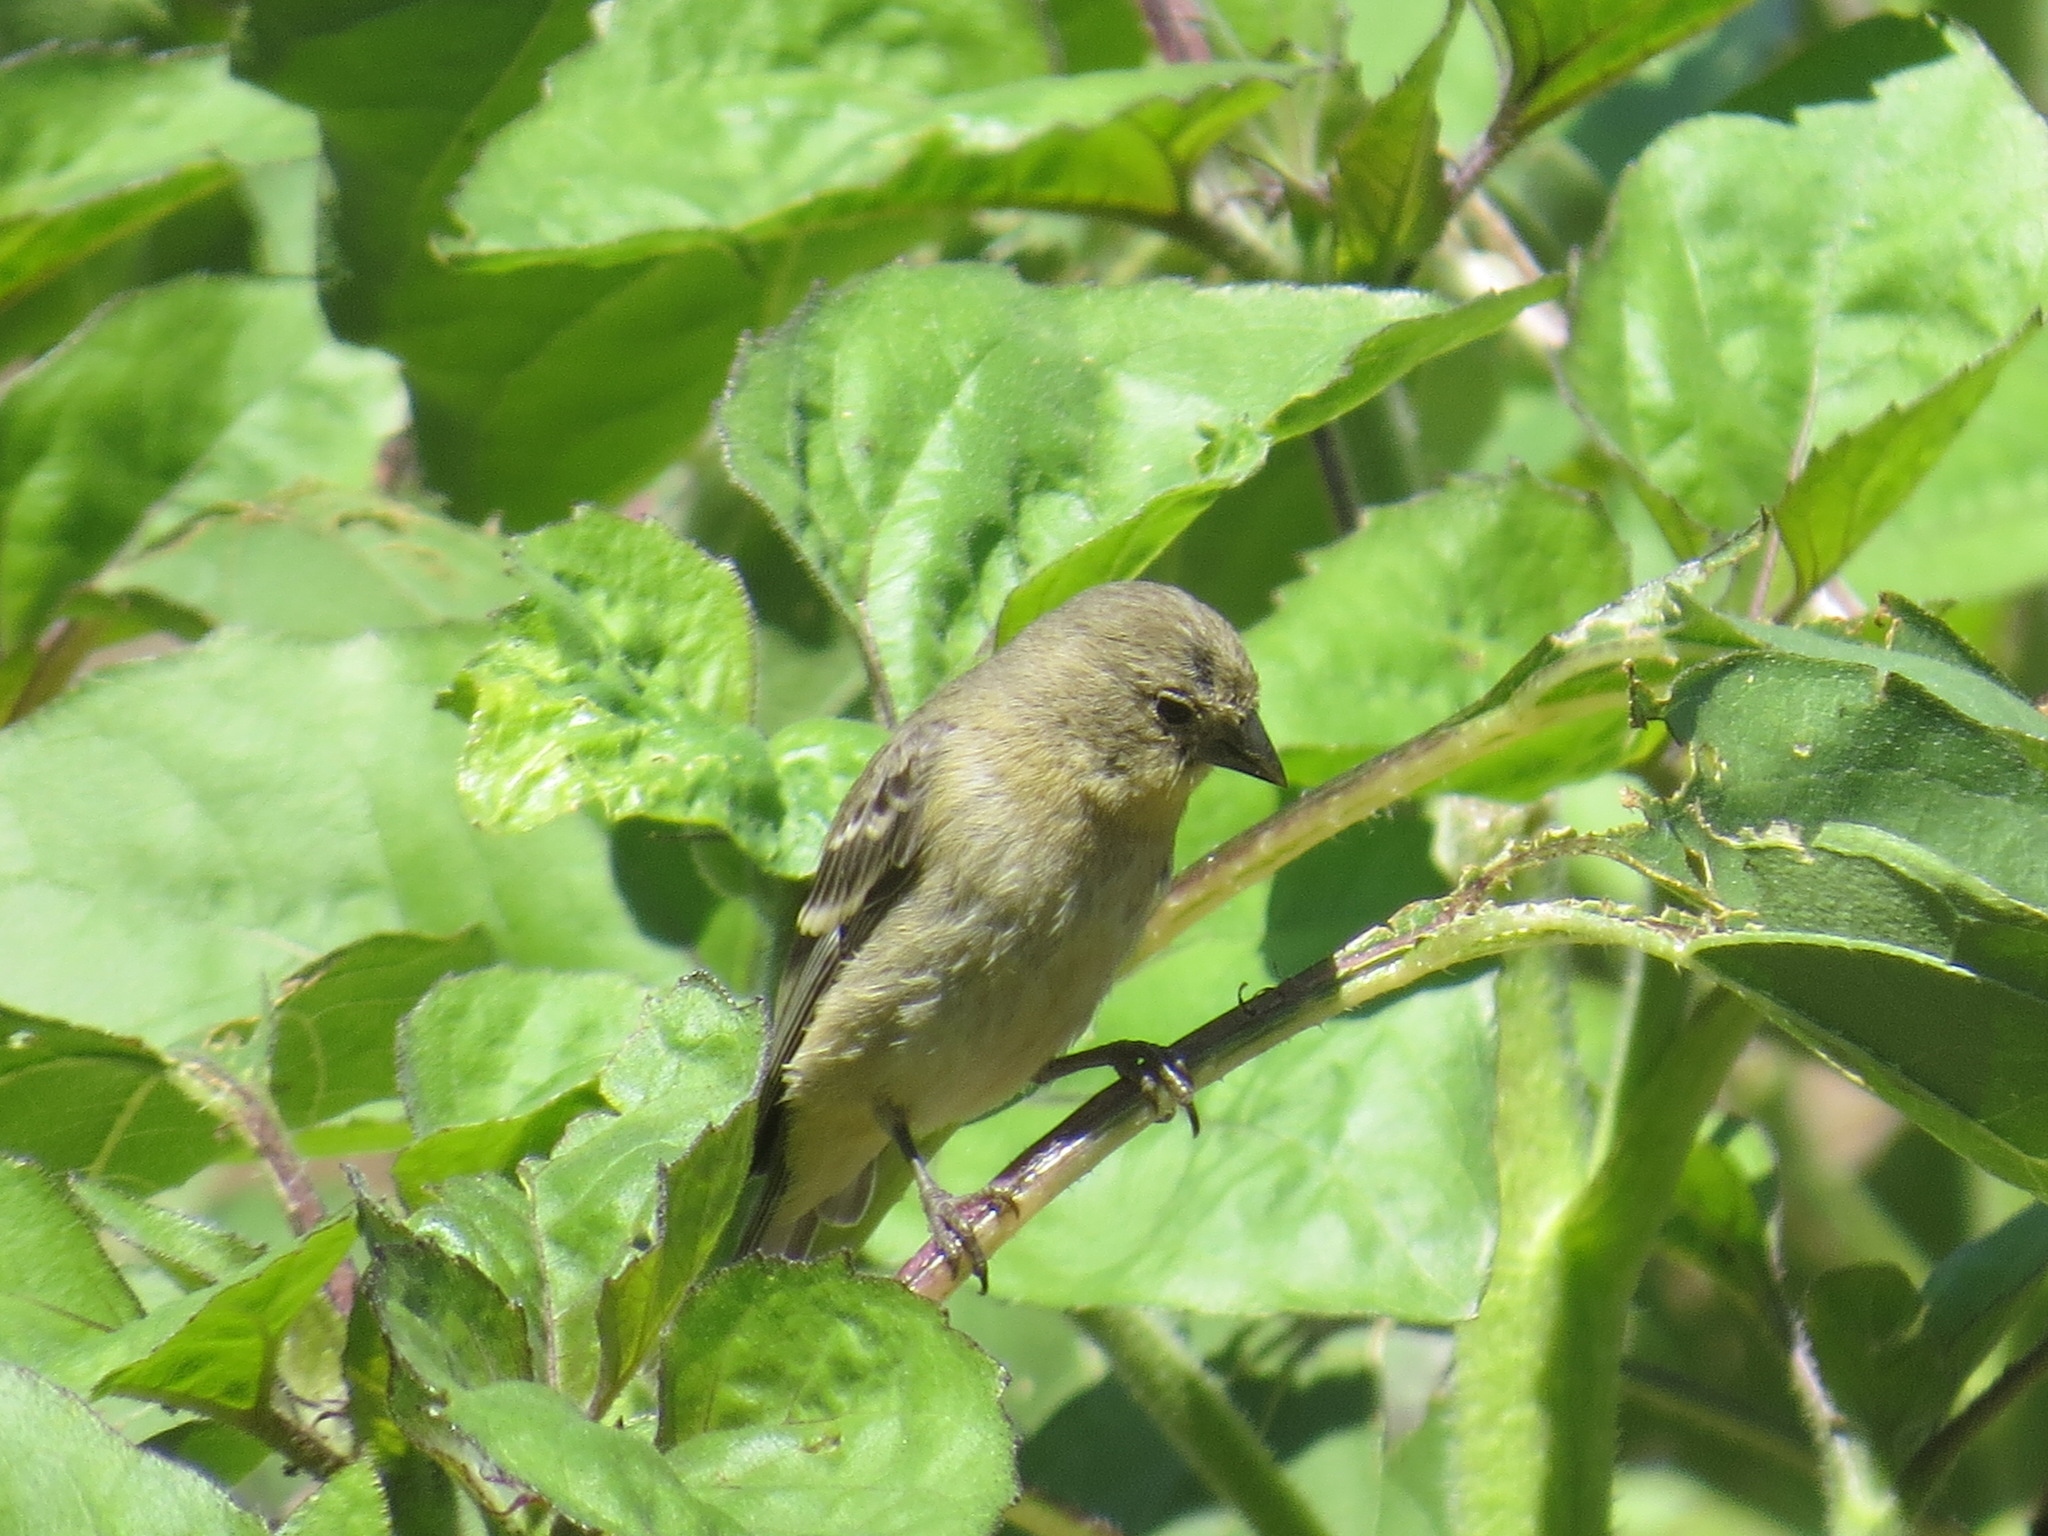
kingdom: Animalia
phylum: Chordata
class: Aves
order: Passeriformes
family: Fringillidae
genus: Spinus
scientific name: Spinus psaltria
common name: Lesser goldfinch
